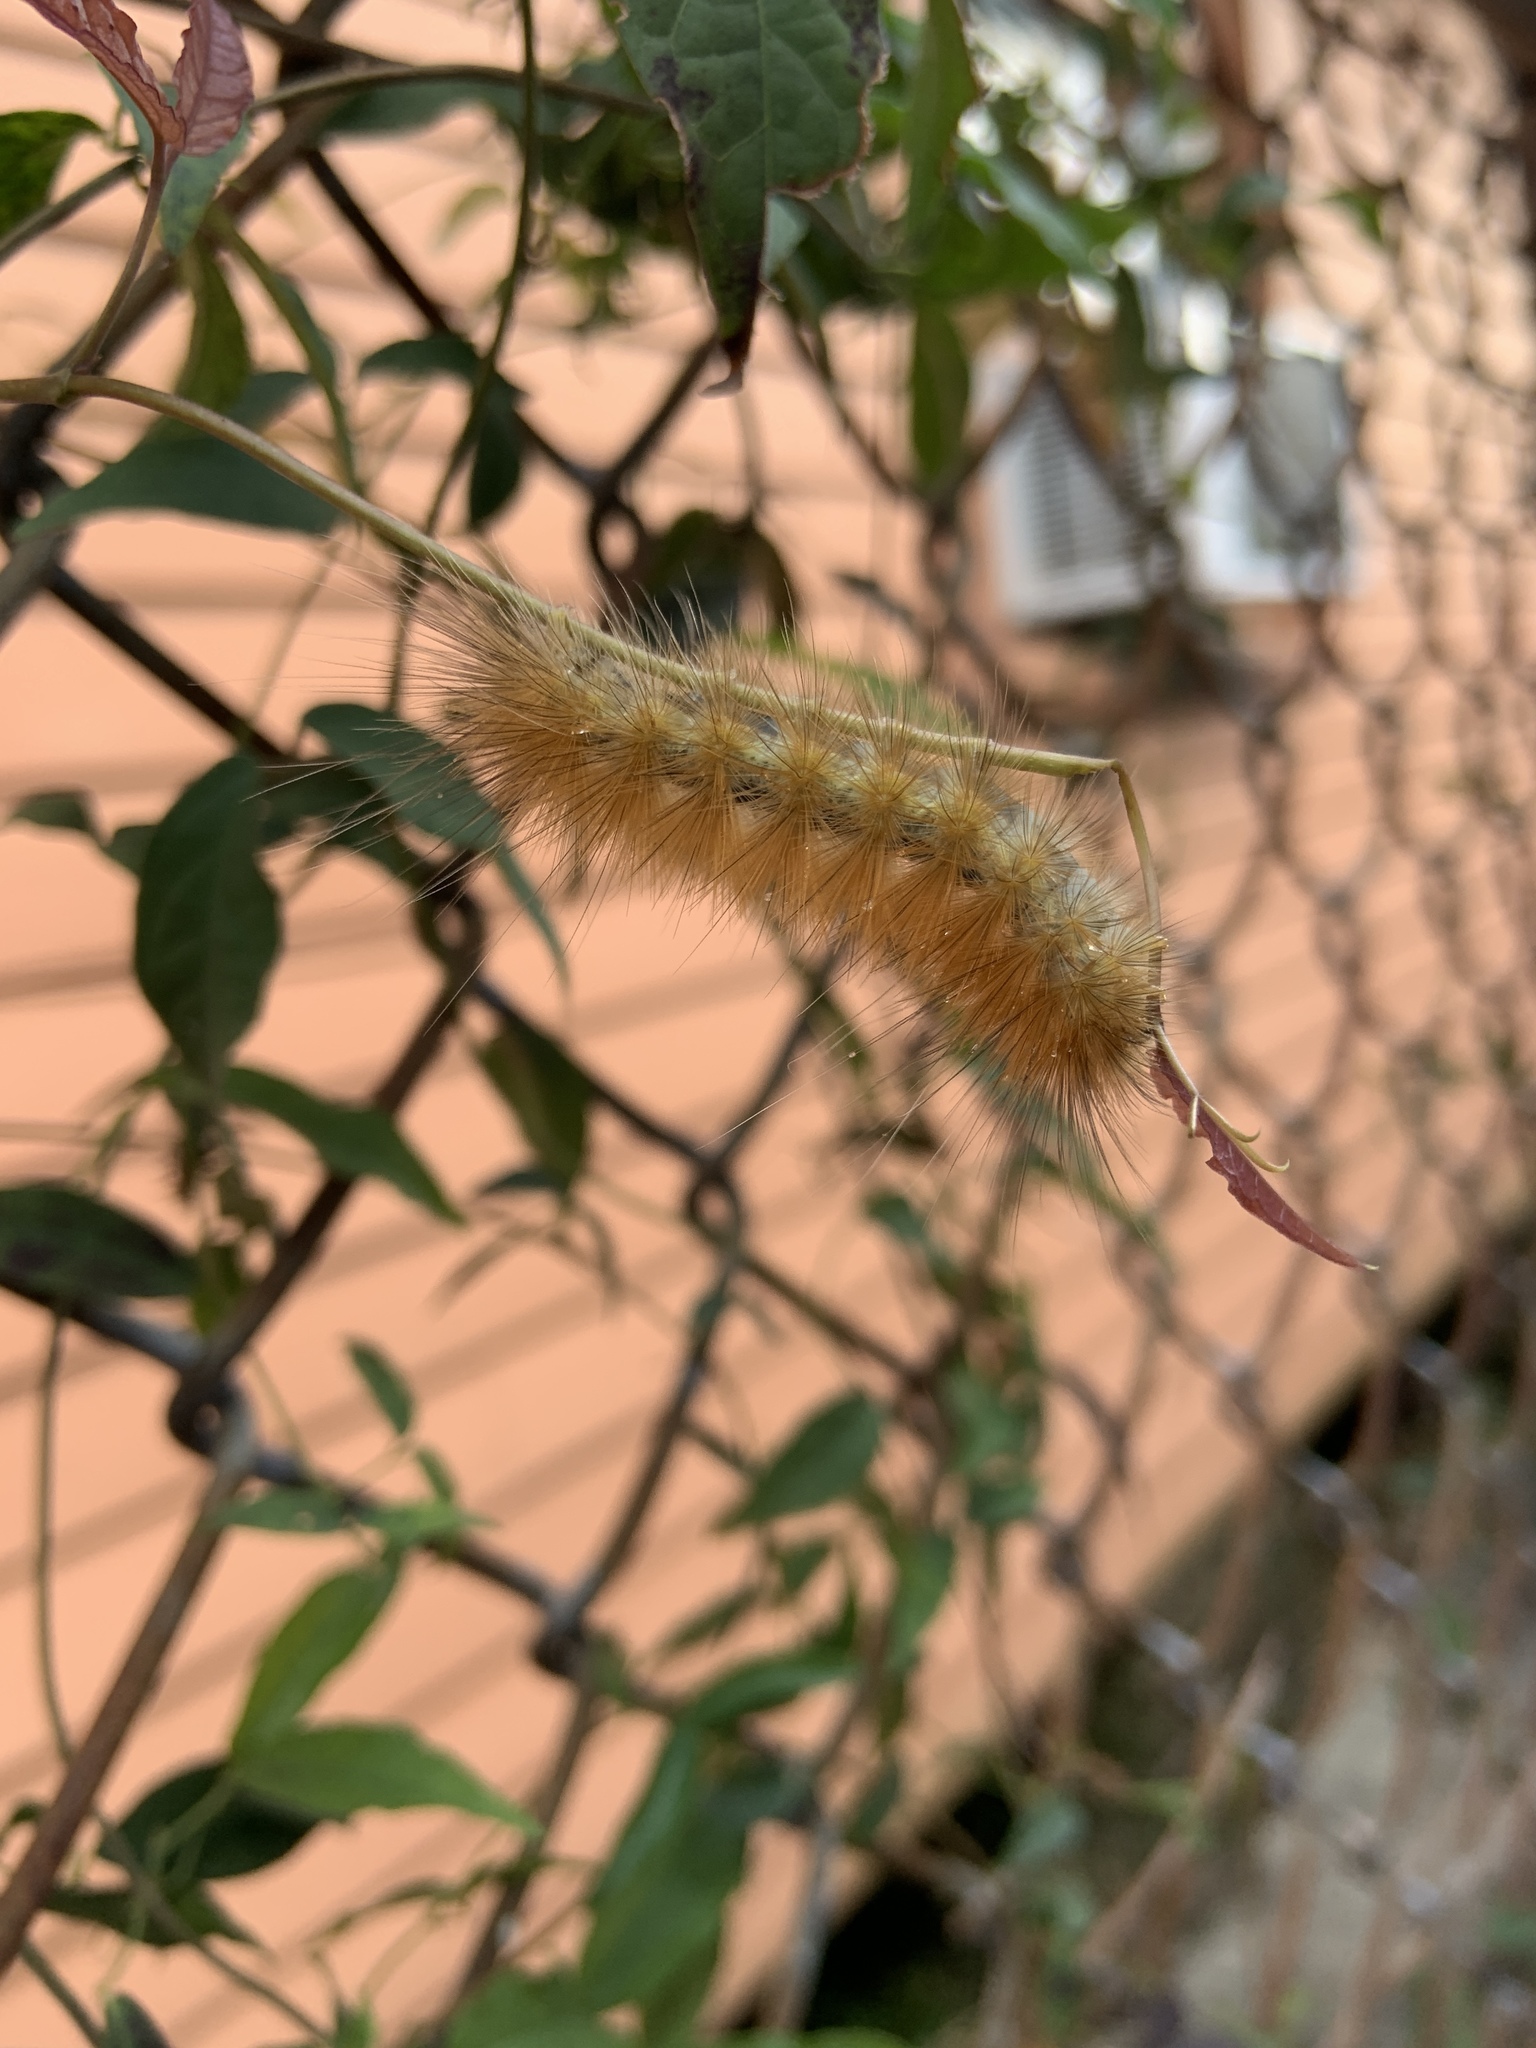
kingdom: Animalia
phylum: Arthropoda
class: Insecta
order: Lepidoptera
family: Erebidae
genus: Spilosoma
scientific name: Spilosoma virginica
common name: Virginia tiger moth
